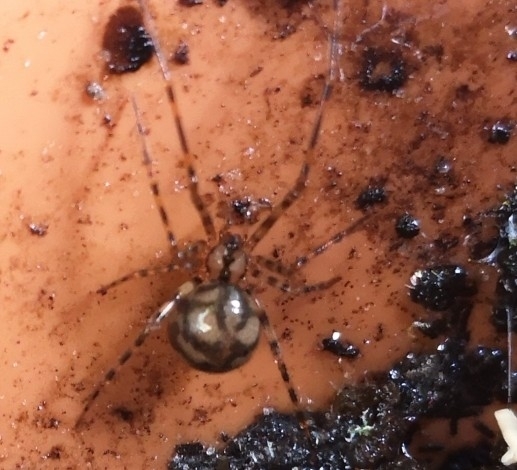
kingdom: Animalia
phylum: Arthropoda
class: Arachnida
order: Araneae
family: Nesticidae
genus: Nesticus
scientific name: Nesticus cellulanus
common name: Comb-footed cellar spider
